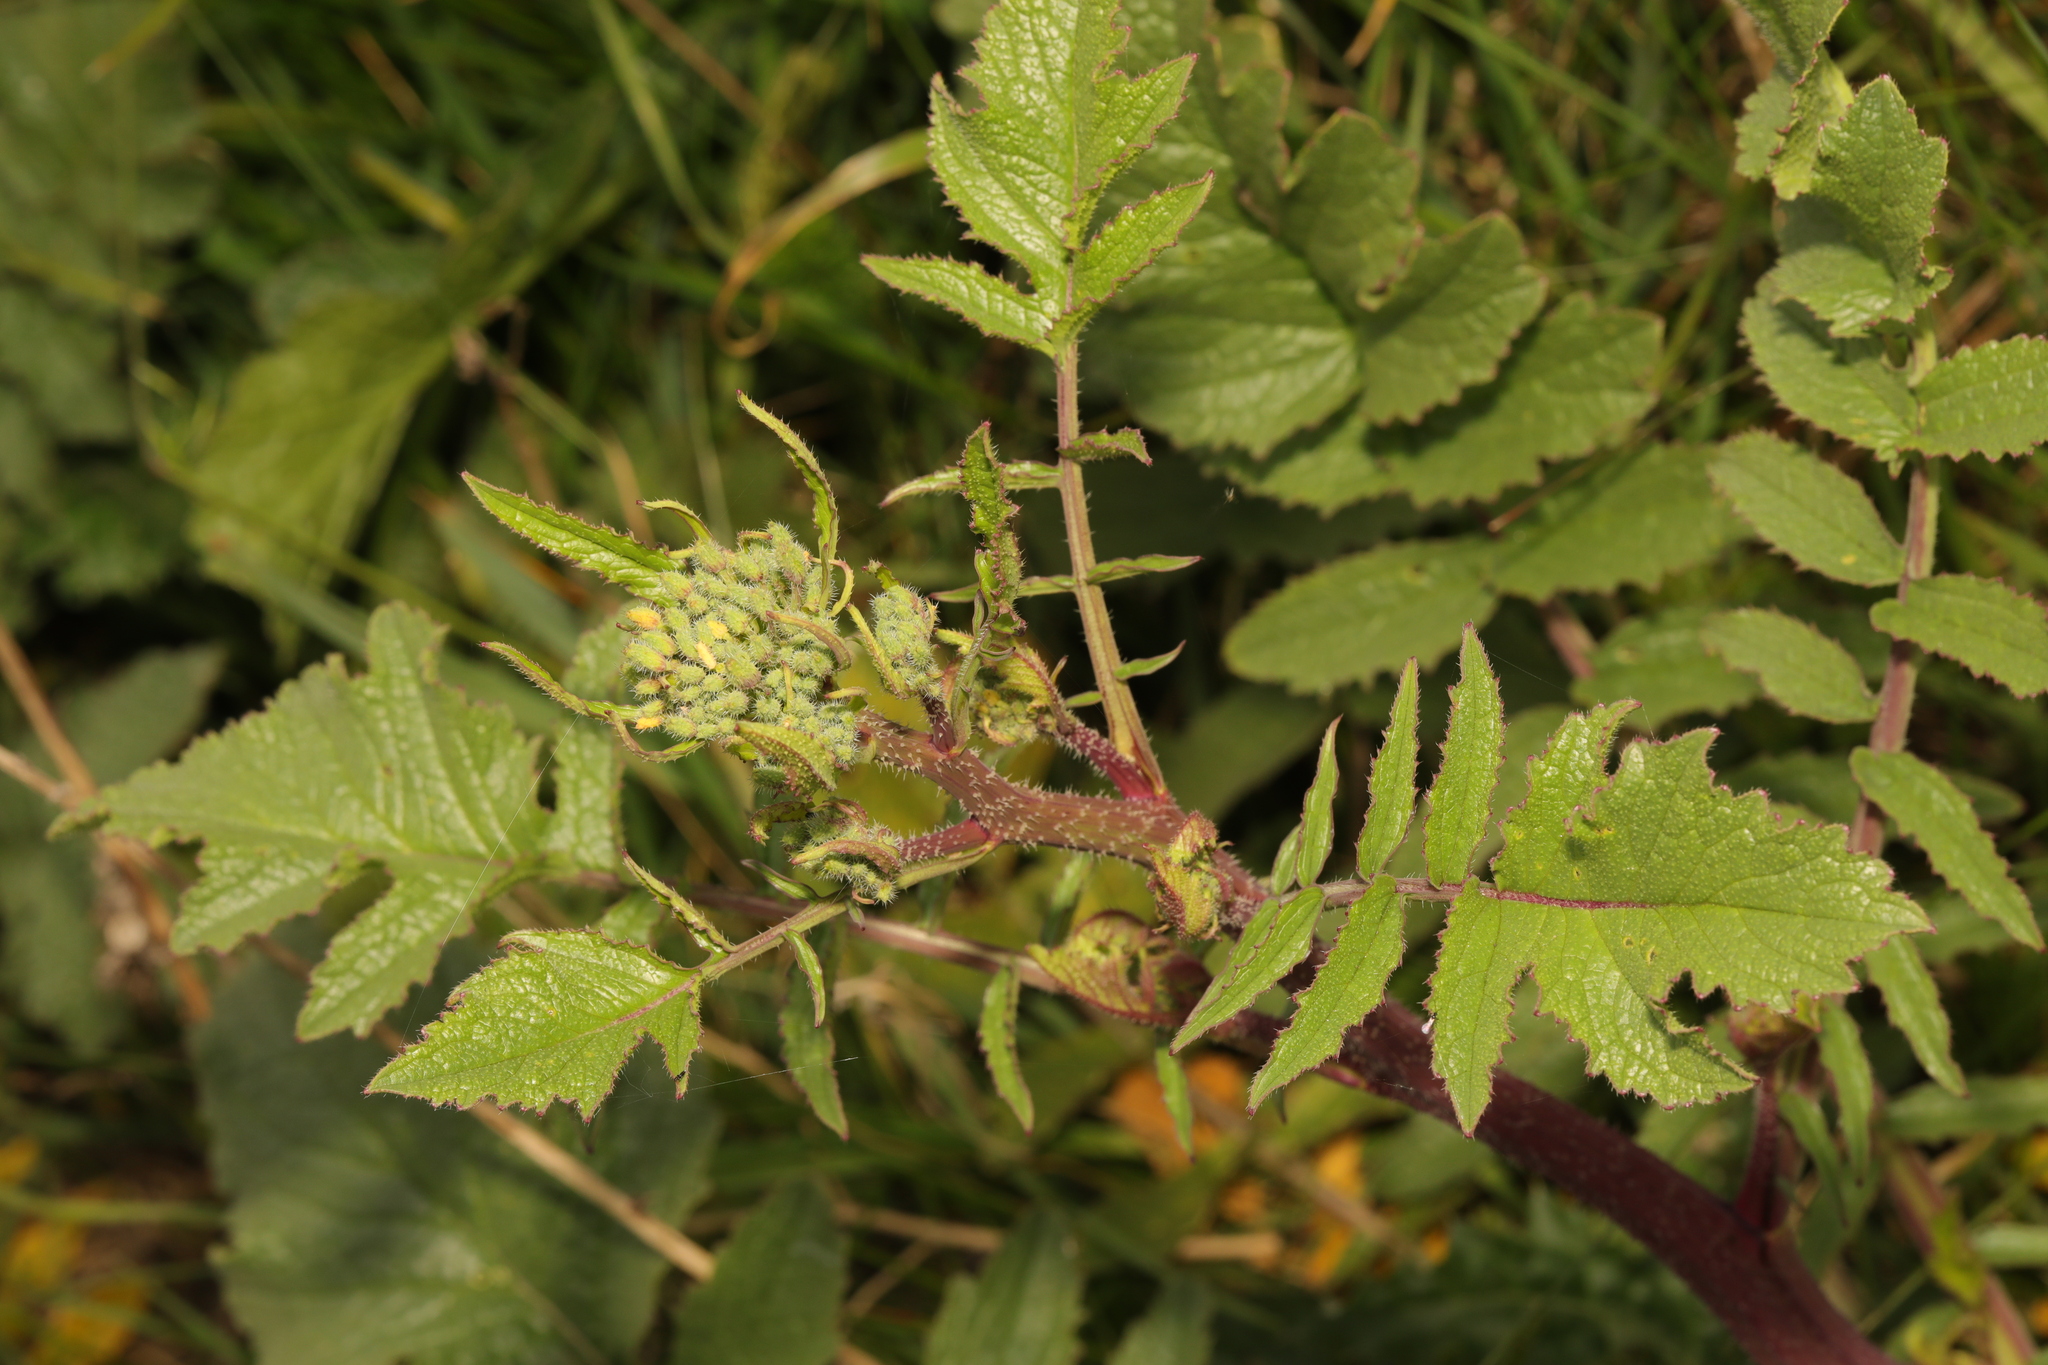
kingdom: Plantae
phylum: Tracheophyta
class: Magnoliopsida
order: Brassicales
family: Brassicaceae
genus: Raphanus
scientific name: Raphanus raphanistrum
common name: Wild radish
